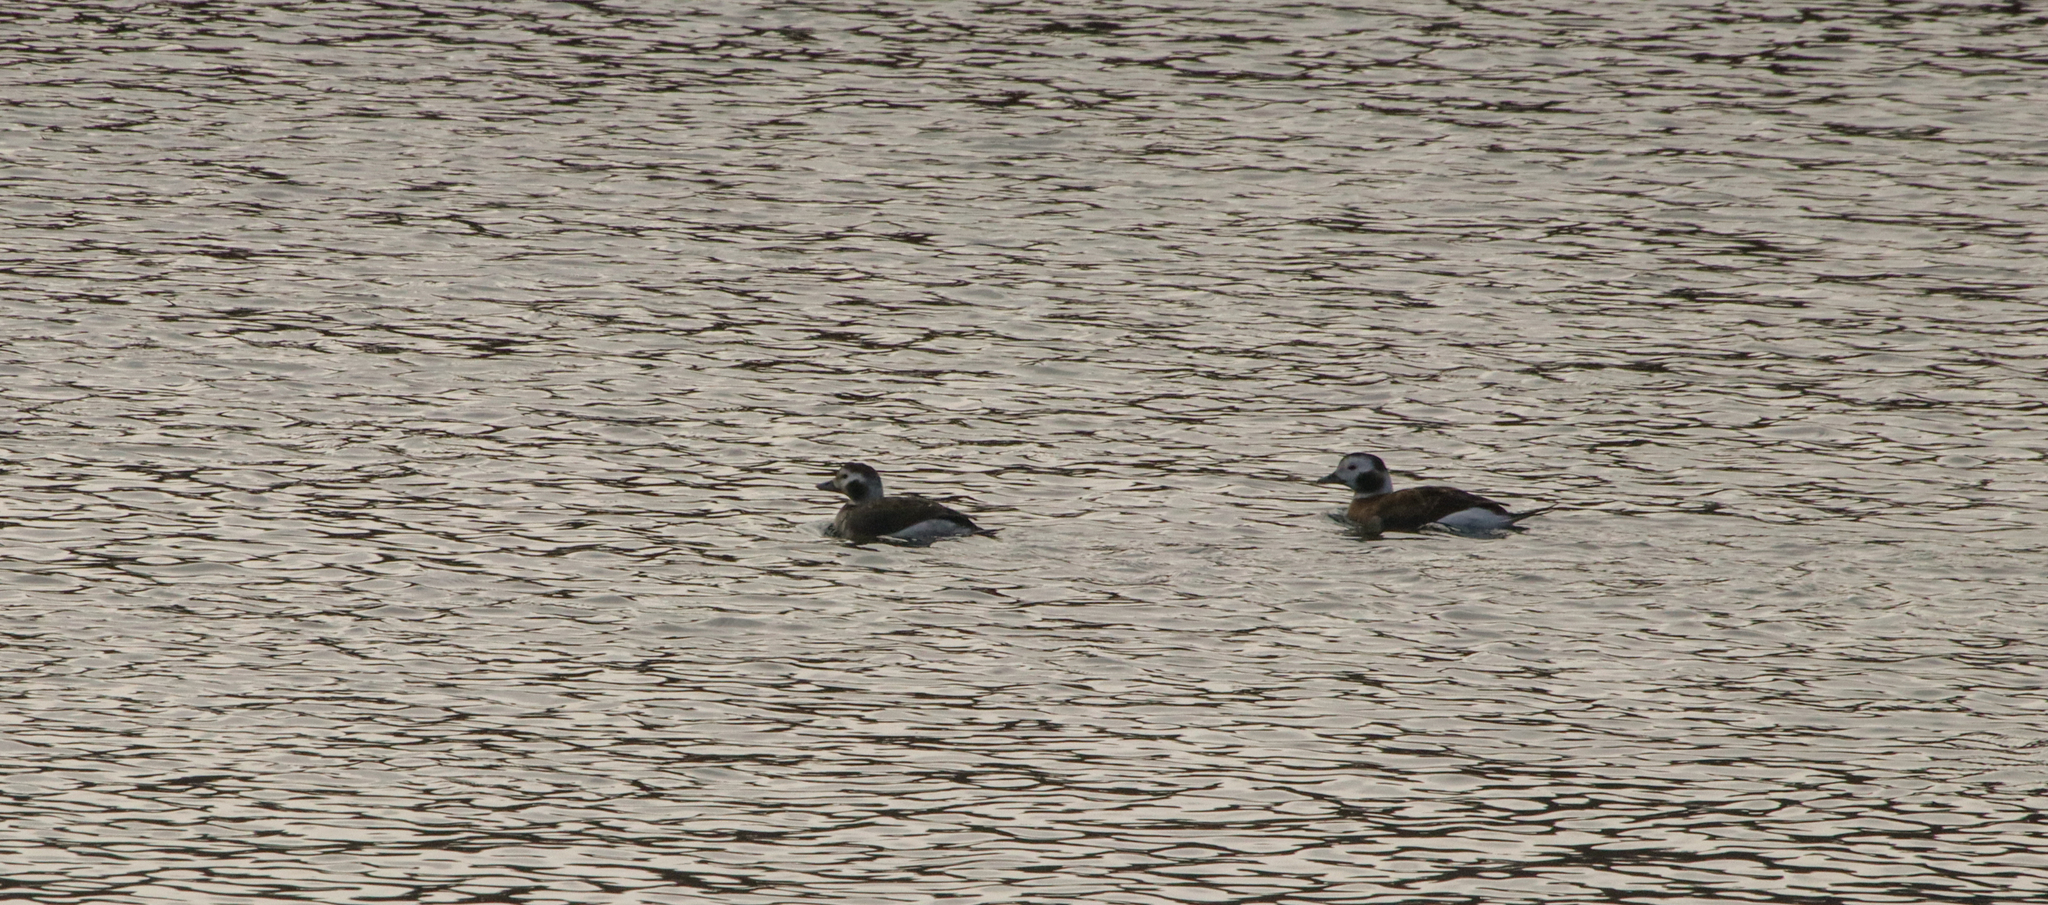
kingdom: Animalia
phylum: Chordata
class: Aves
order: Anseriformes
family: Anatidae
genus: Clangula
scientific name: Clangula hyemalis
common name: Long-tailed duck
